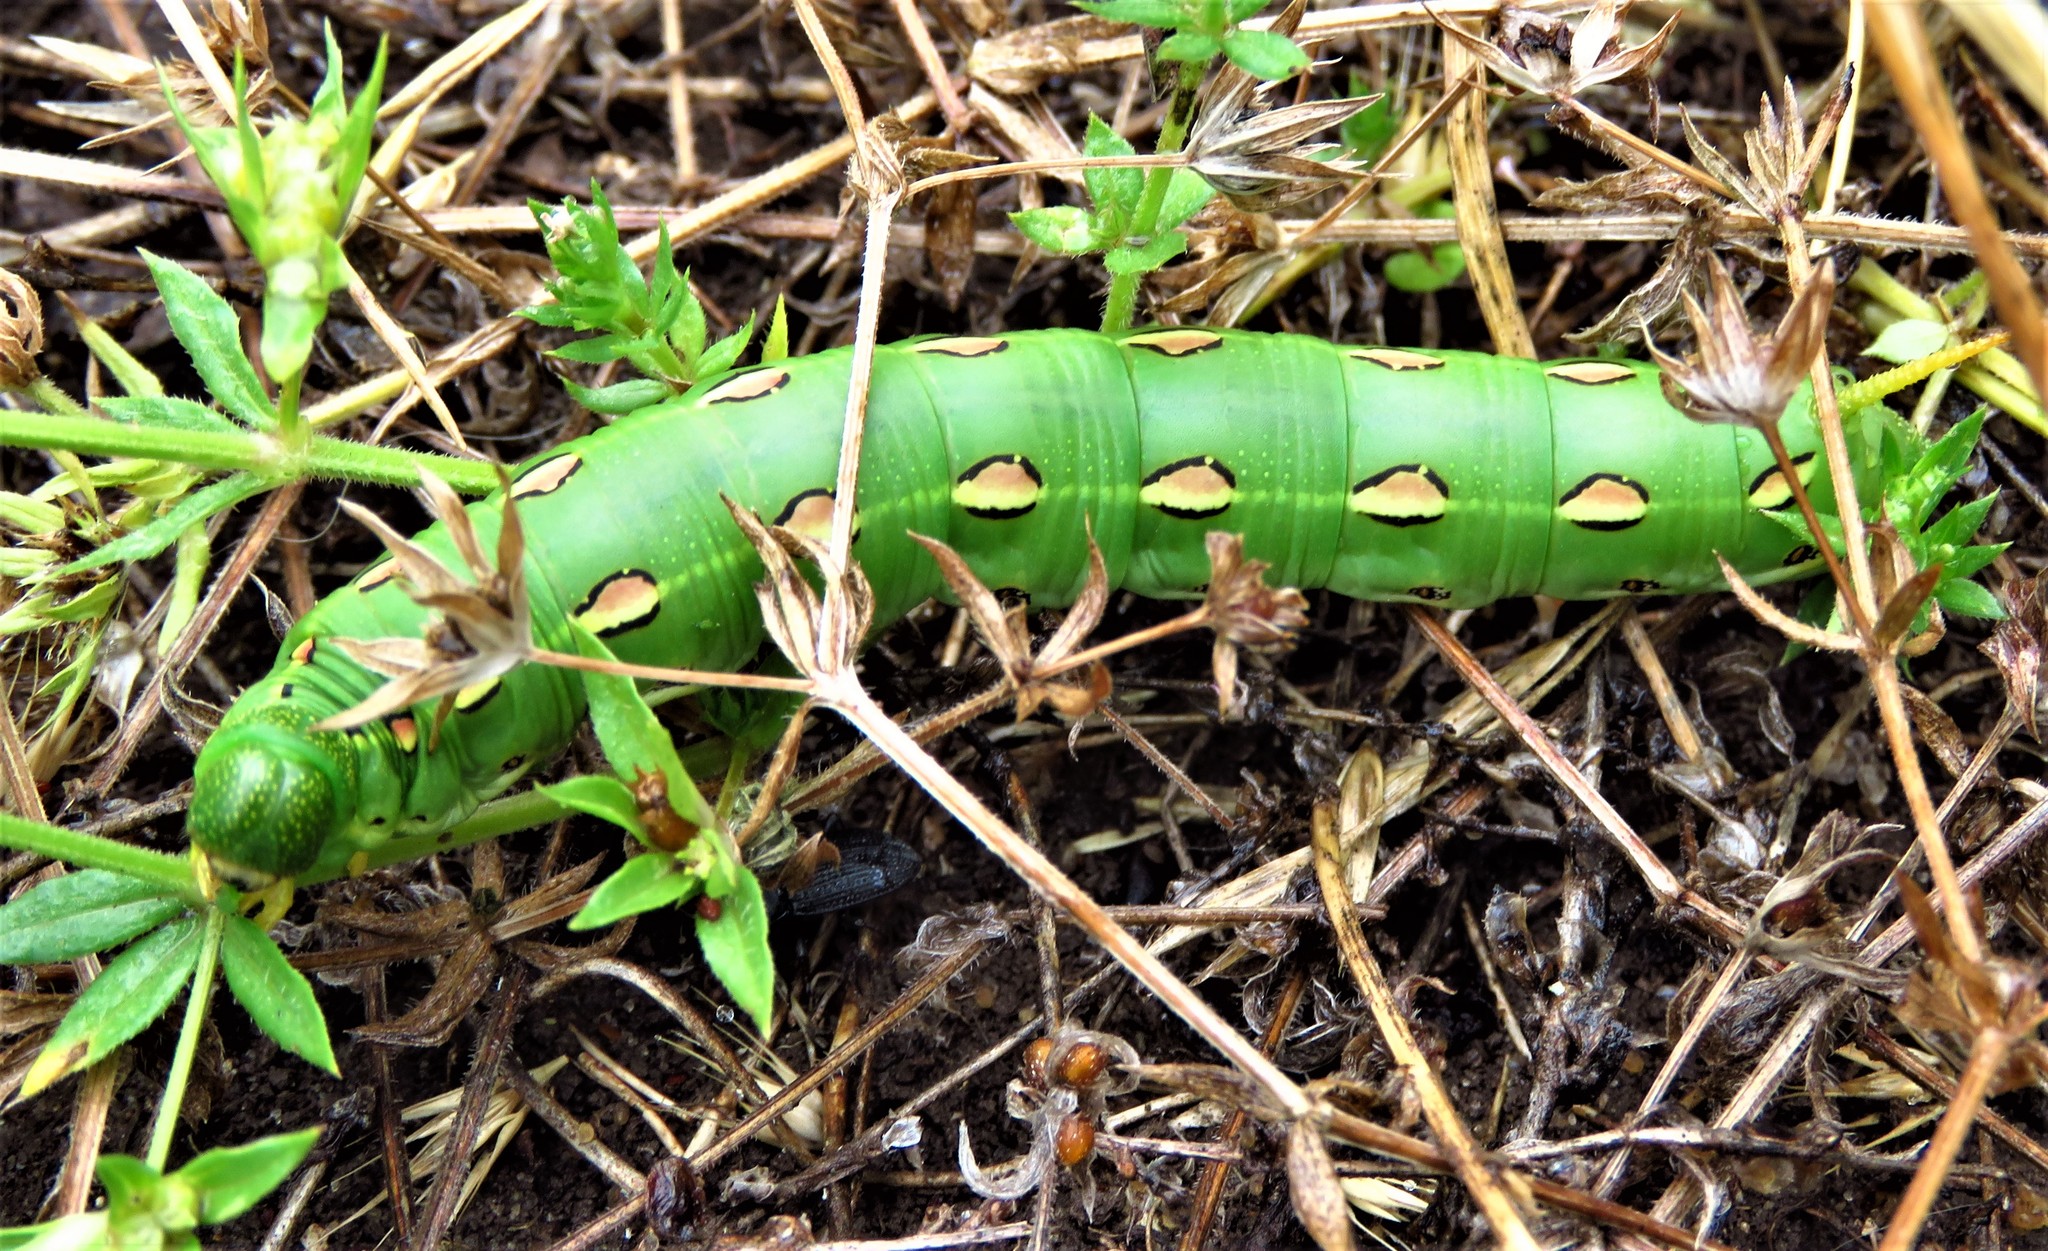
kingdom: Animalia
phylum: Arthropoda
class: Insecta
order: Lepidoptera
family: Sphingidae
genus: Hyles
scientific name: Hyles lineata
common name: White-lined sphinx
